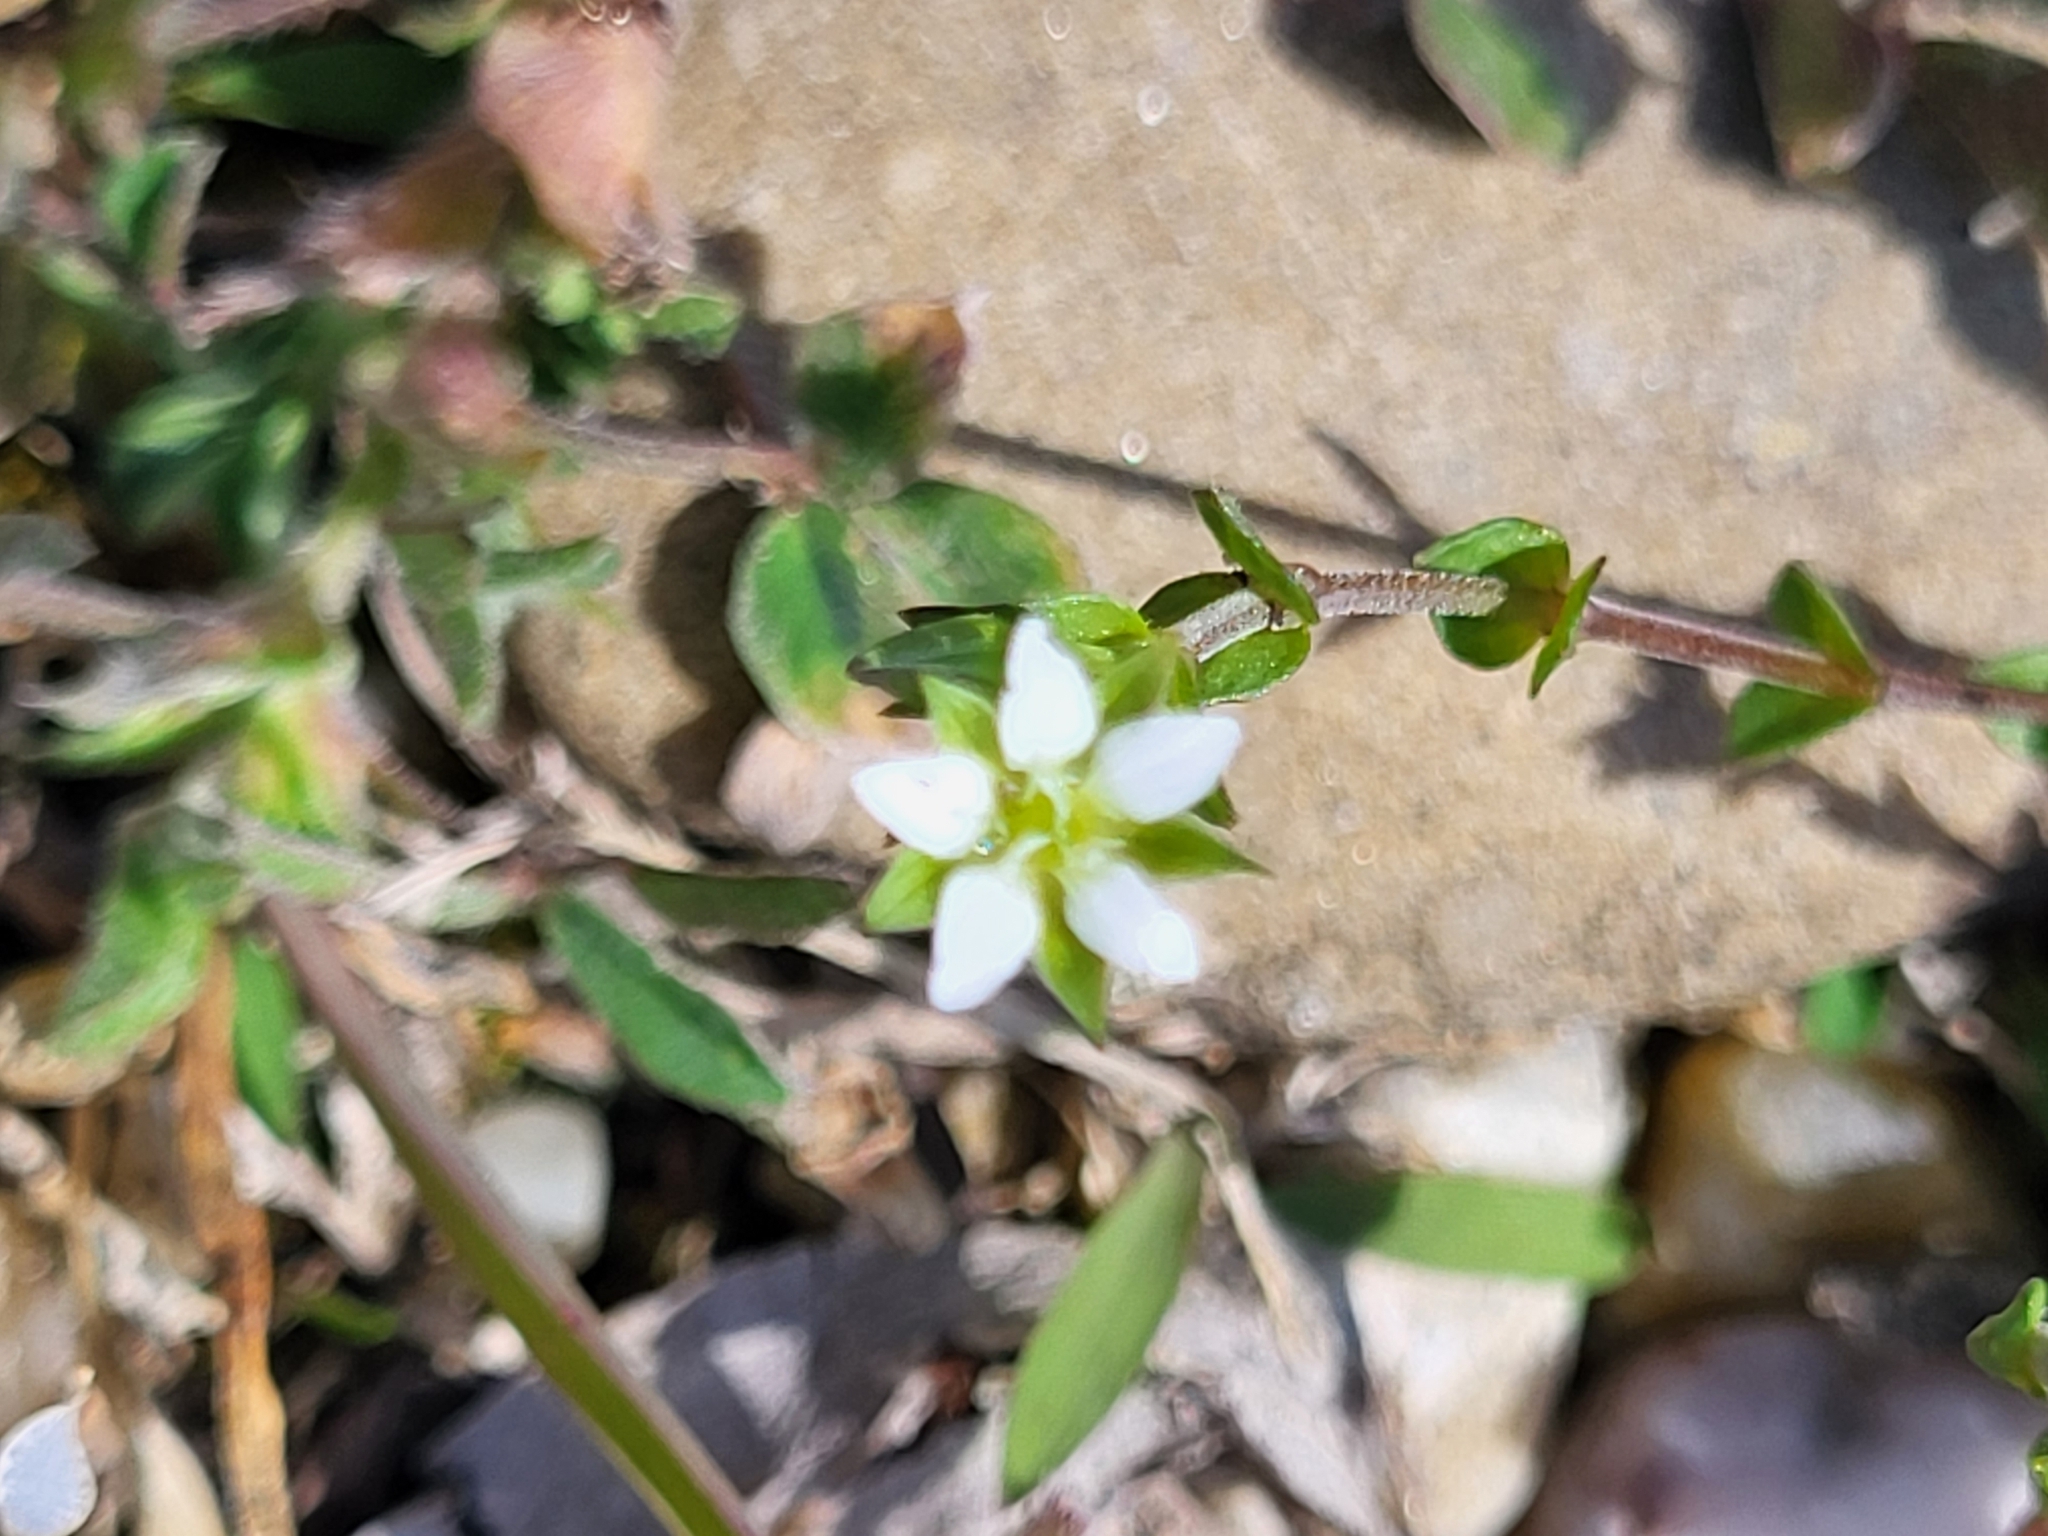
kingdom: Plantae
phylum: Tracheophyta
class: Magnoliopsida
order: Caryophyllales
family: Caryophyllaceae
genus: Arenaria
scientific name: Arenaria serpyllifolia
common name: Thyme-leaved sandwort
